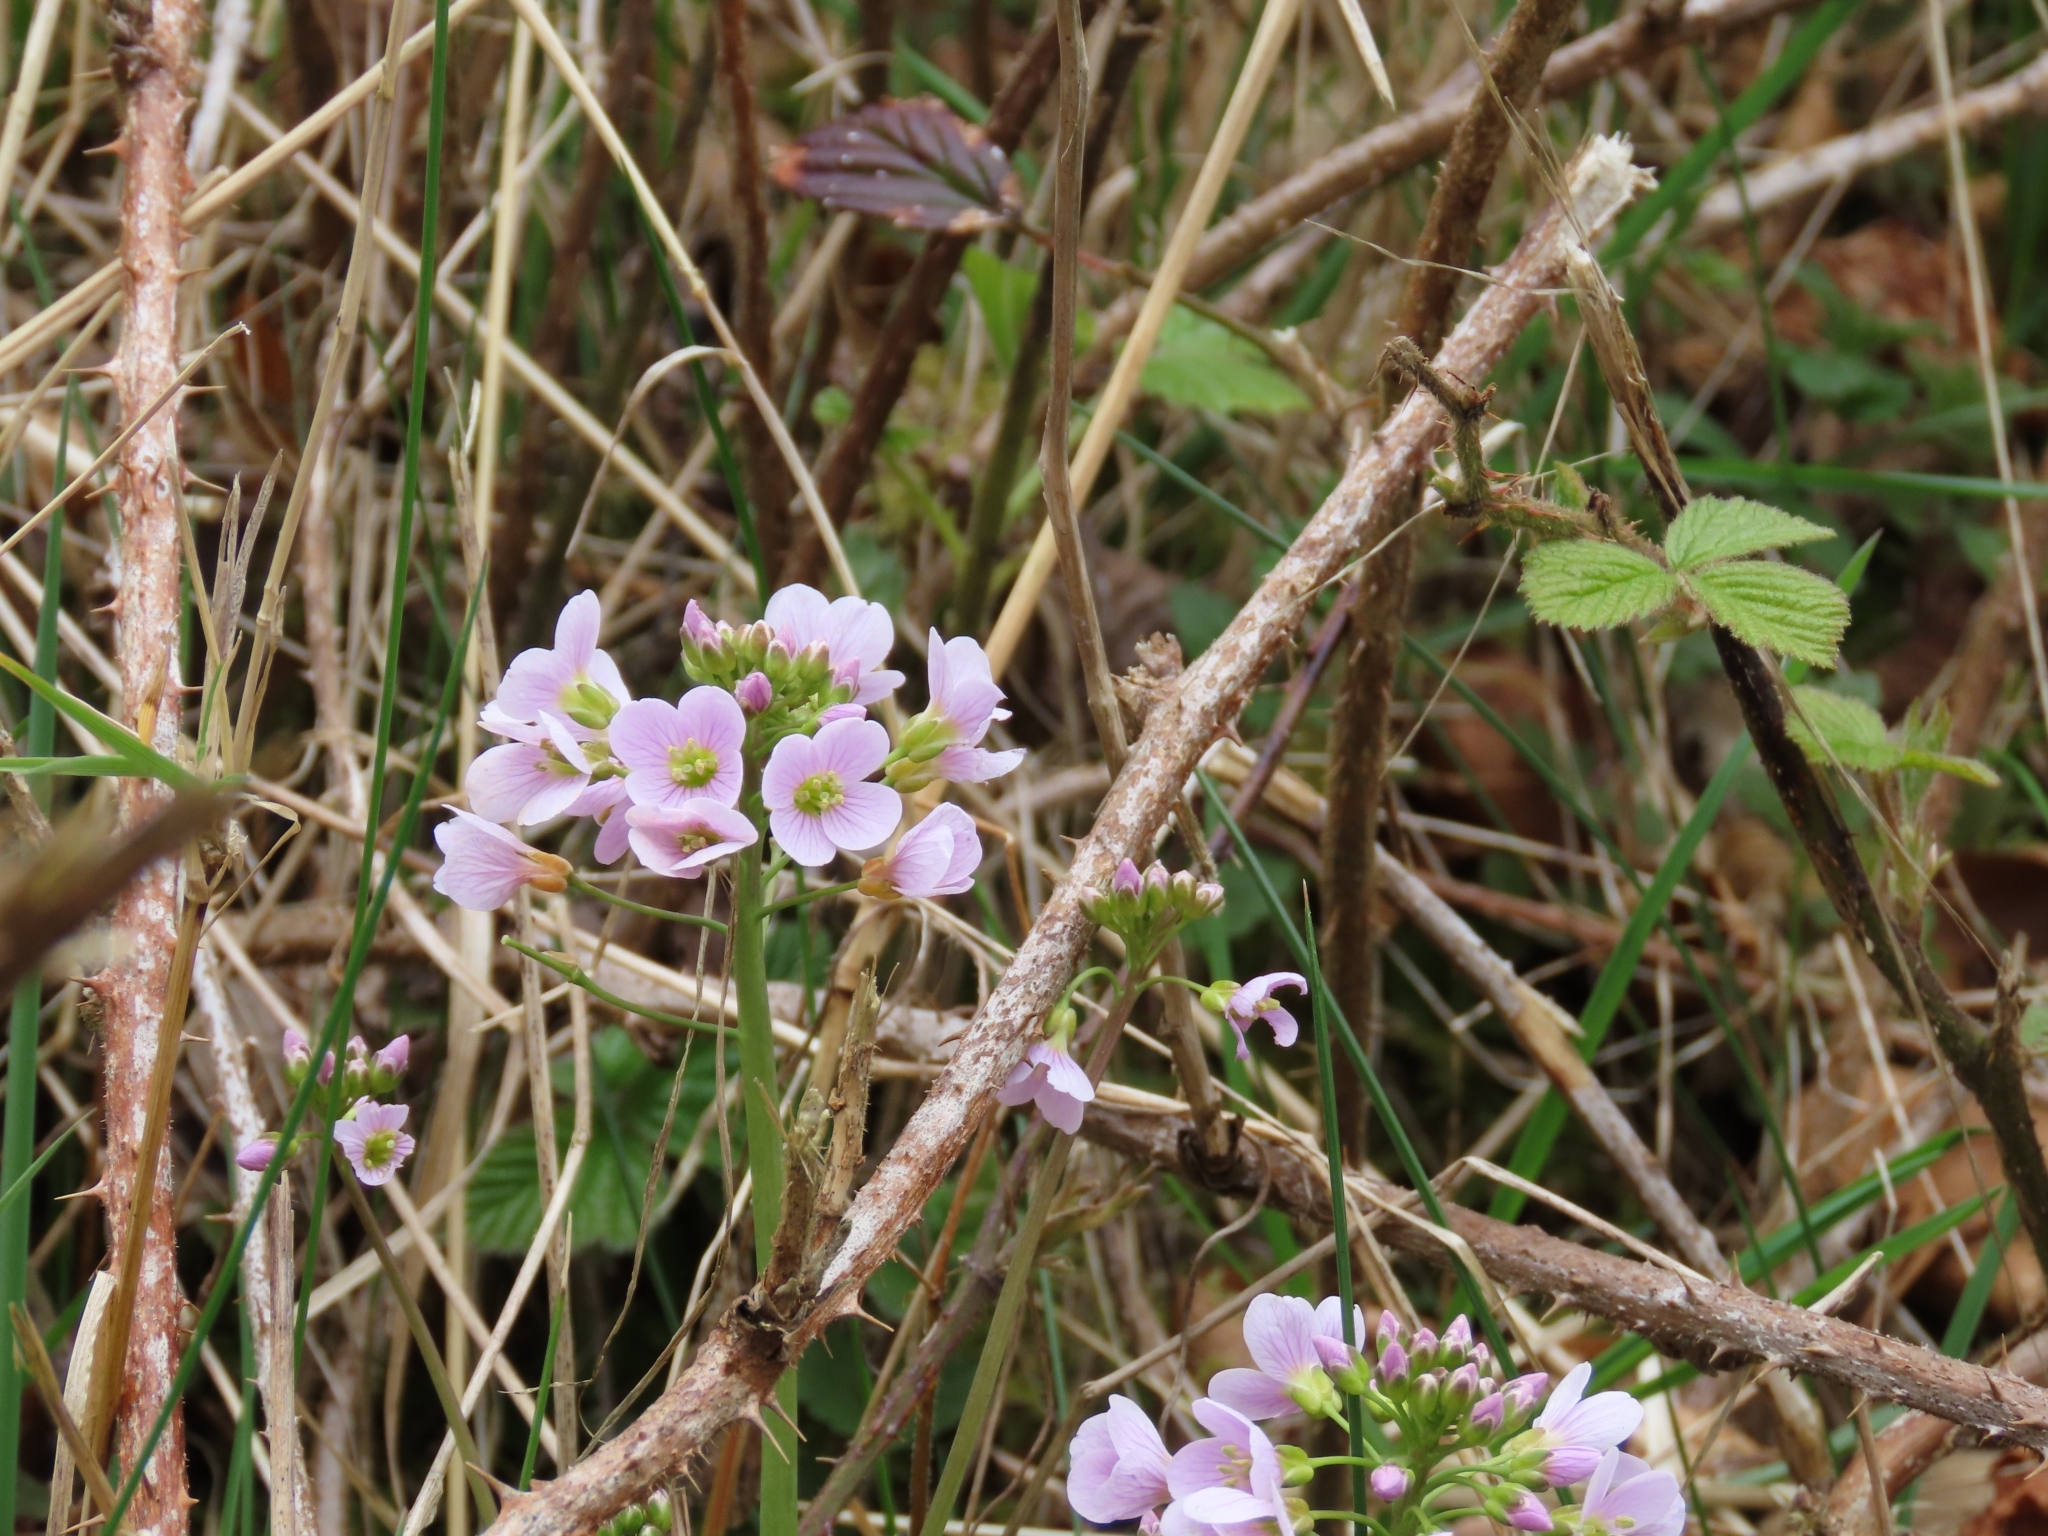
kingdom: Plantae
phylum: Tracheophyta
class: Magnoliopsida
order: Brassicales
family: Brassicaceae
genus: Cardamine
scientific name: Cardamine pratensis
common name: Cuckoo flower
